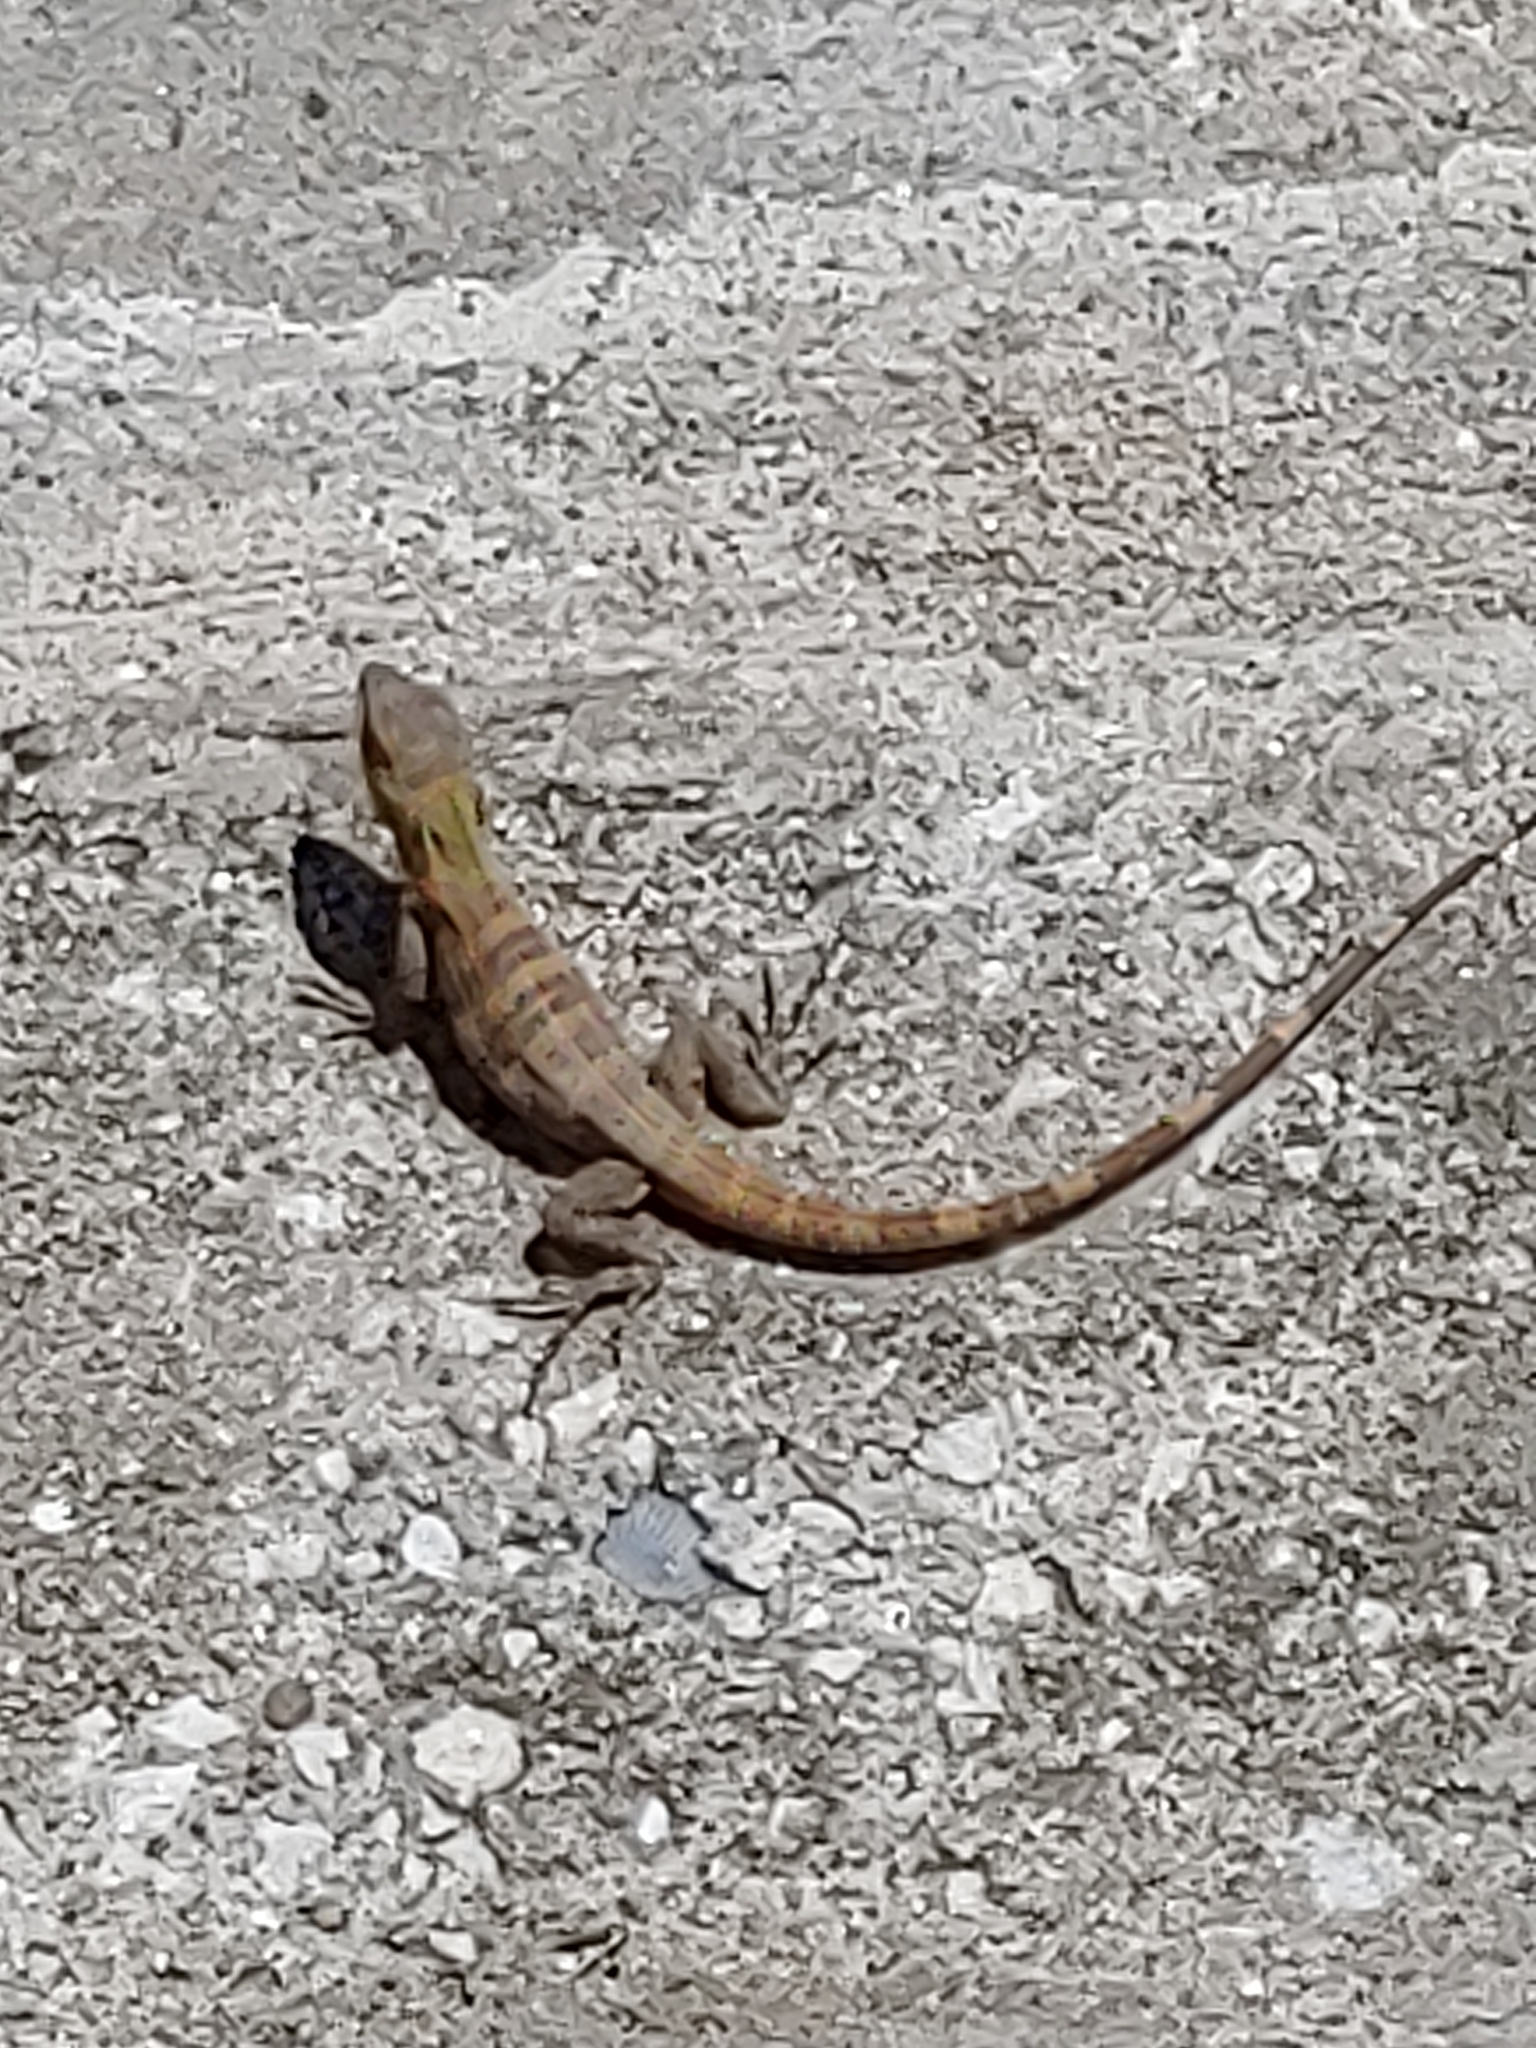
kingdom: Animalia
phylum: Chordata
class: Squamata
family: Iguanidae
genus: Ctenosaura
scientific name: Ctenosaura similis
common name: Black spiny-tailed iguana
